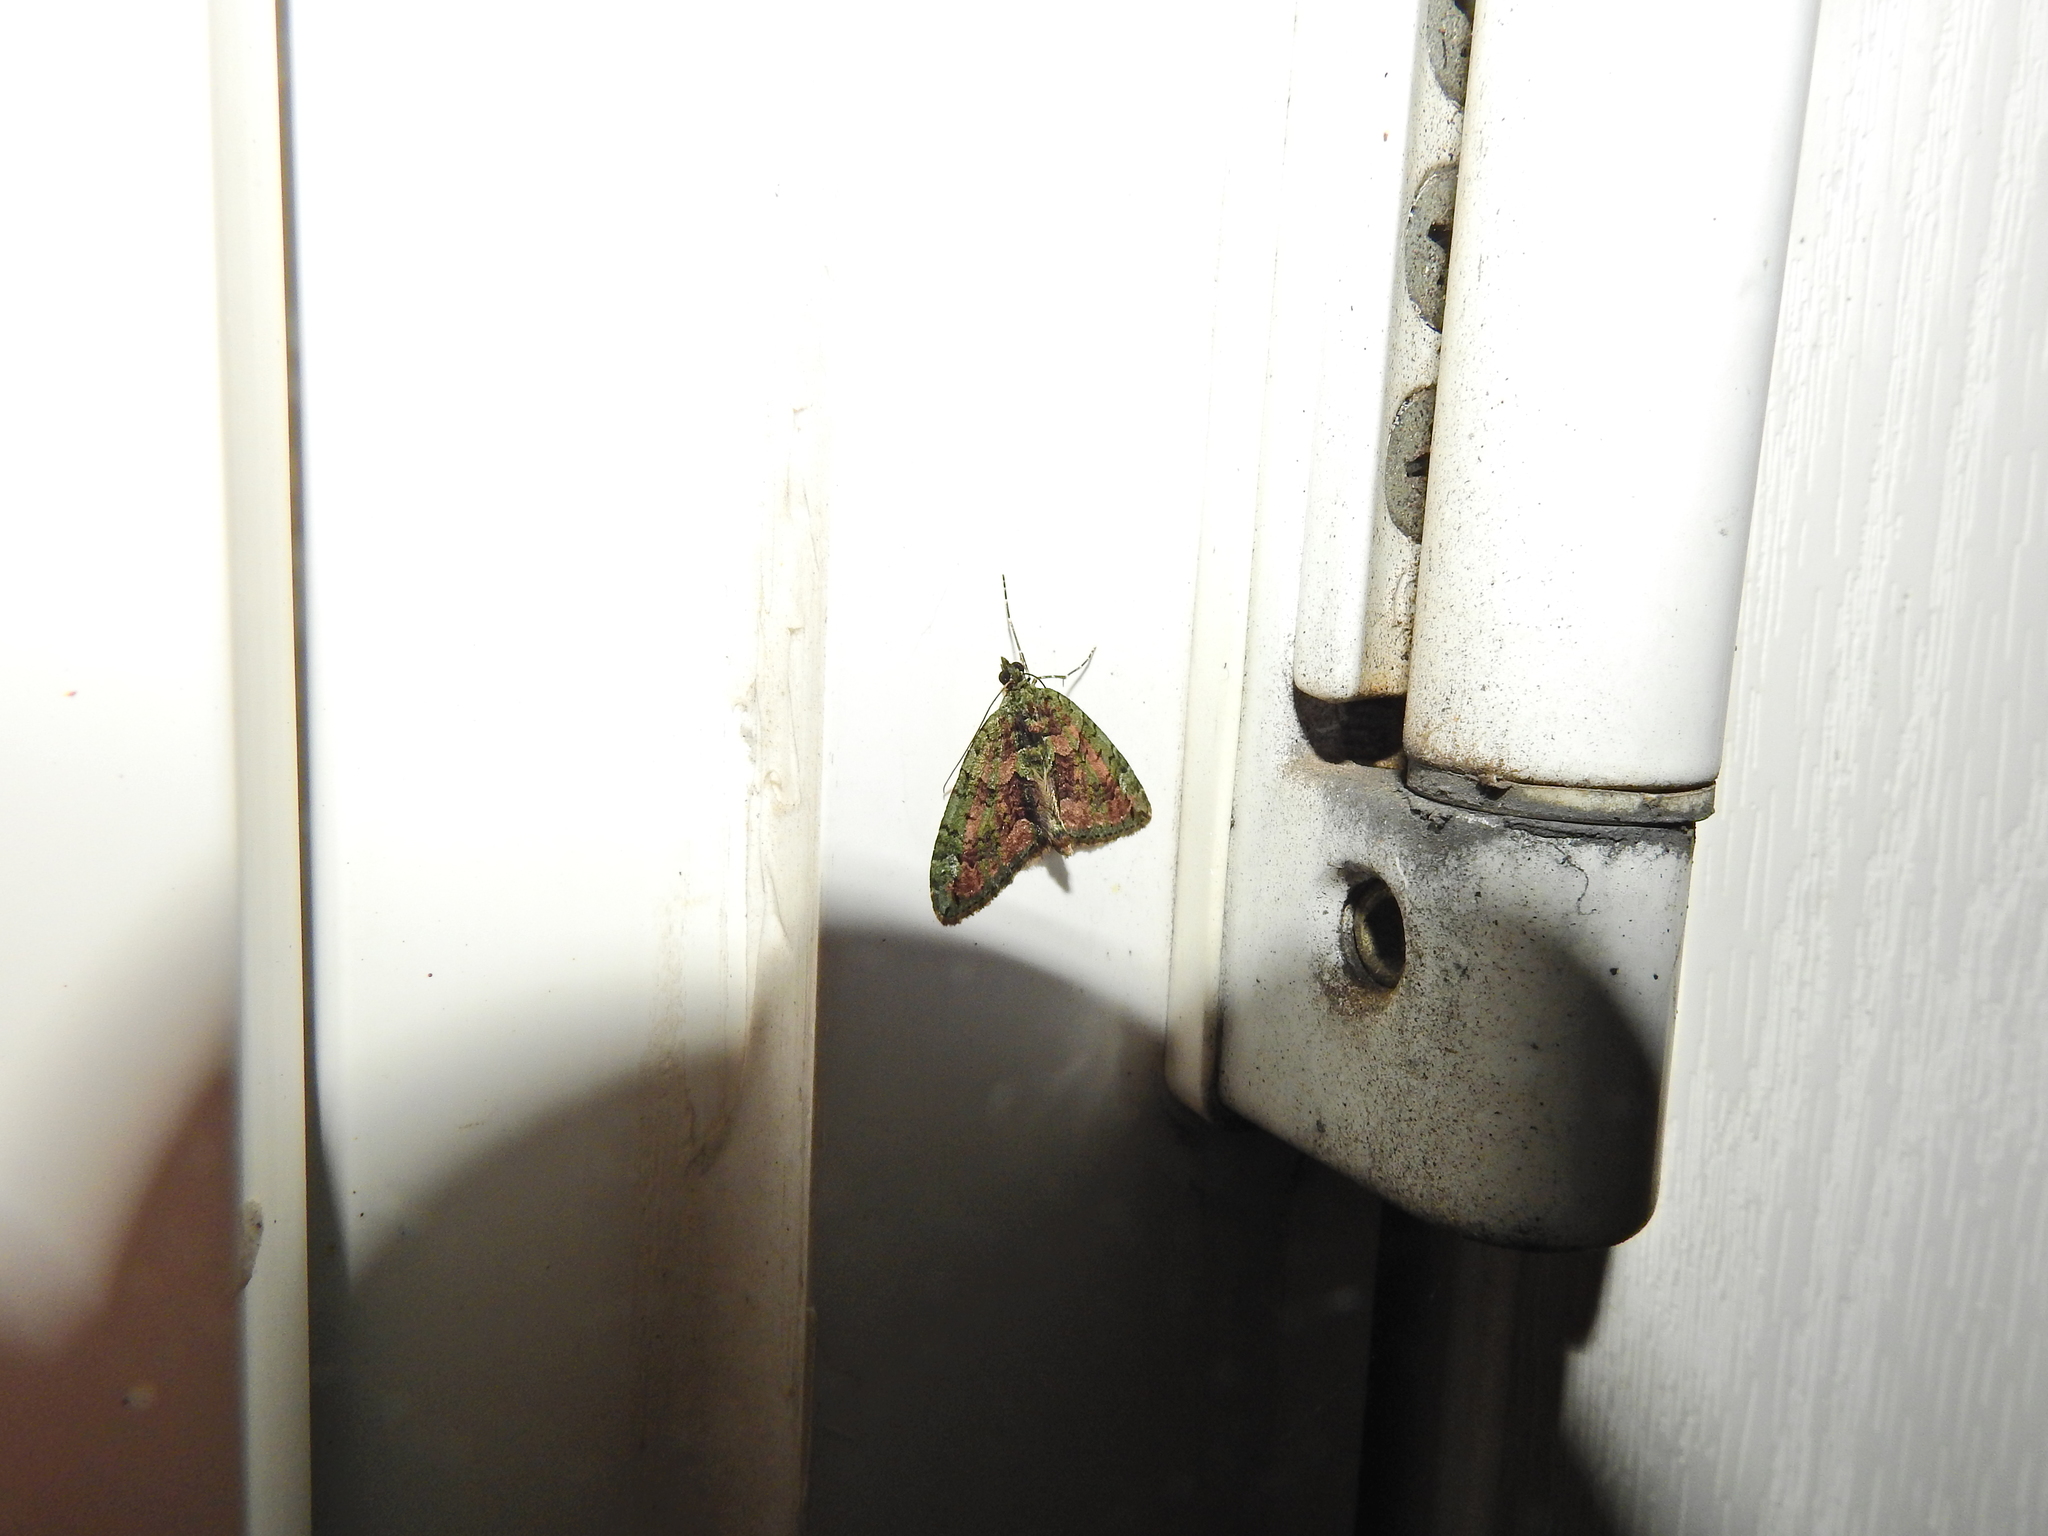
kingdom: Animalia
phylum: Arthropoda
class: Insecta
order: Lepidoptera
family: Geometridae
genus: Chloroclysta
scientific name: Chloroclysta siterata
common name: Red-green carpet
